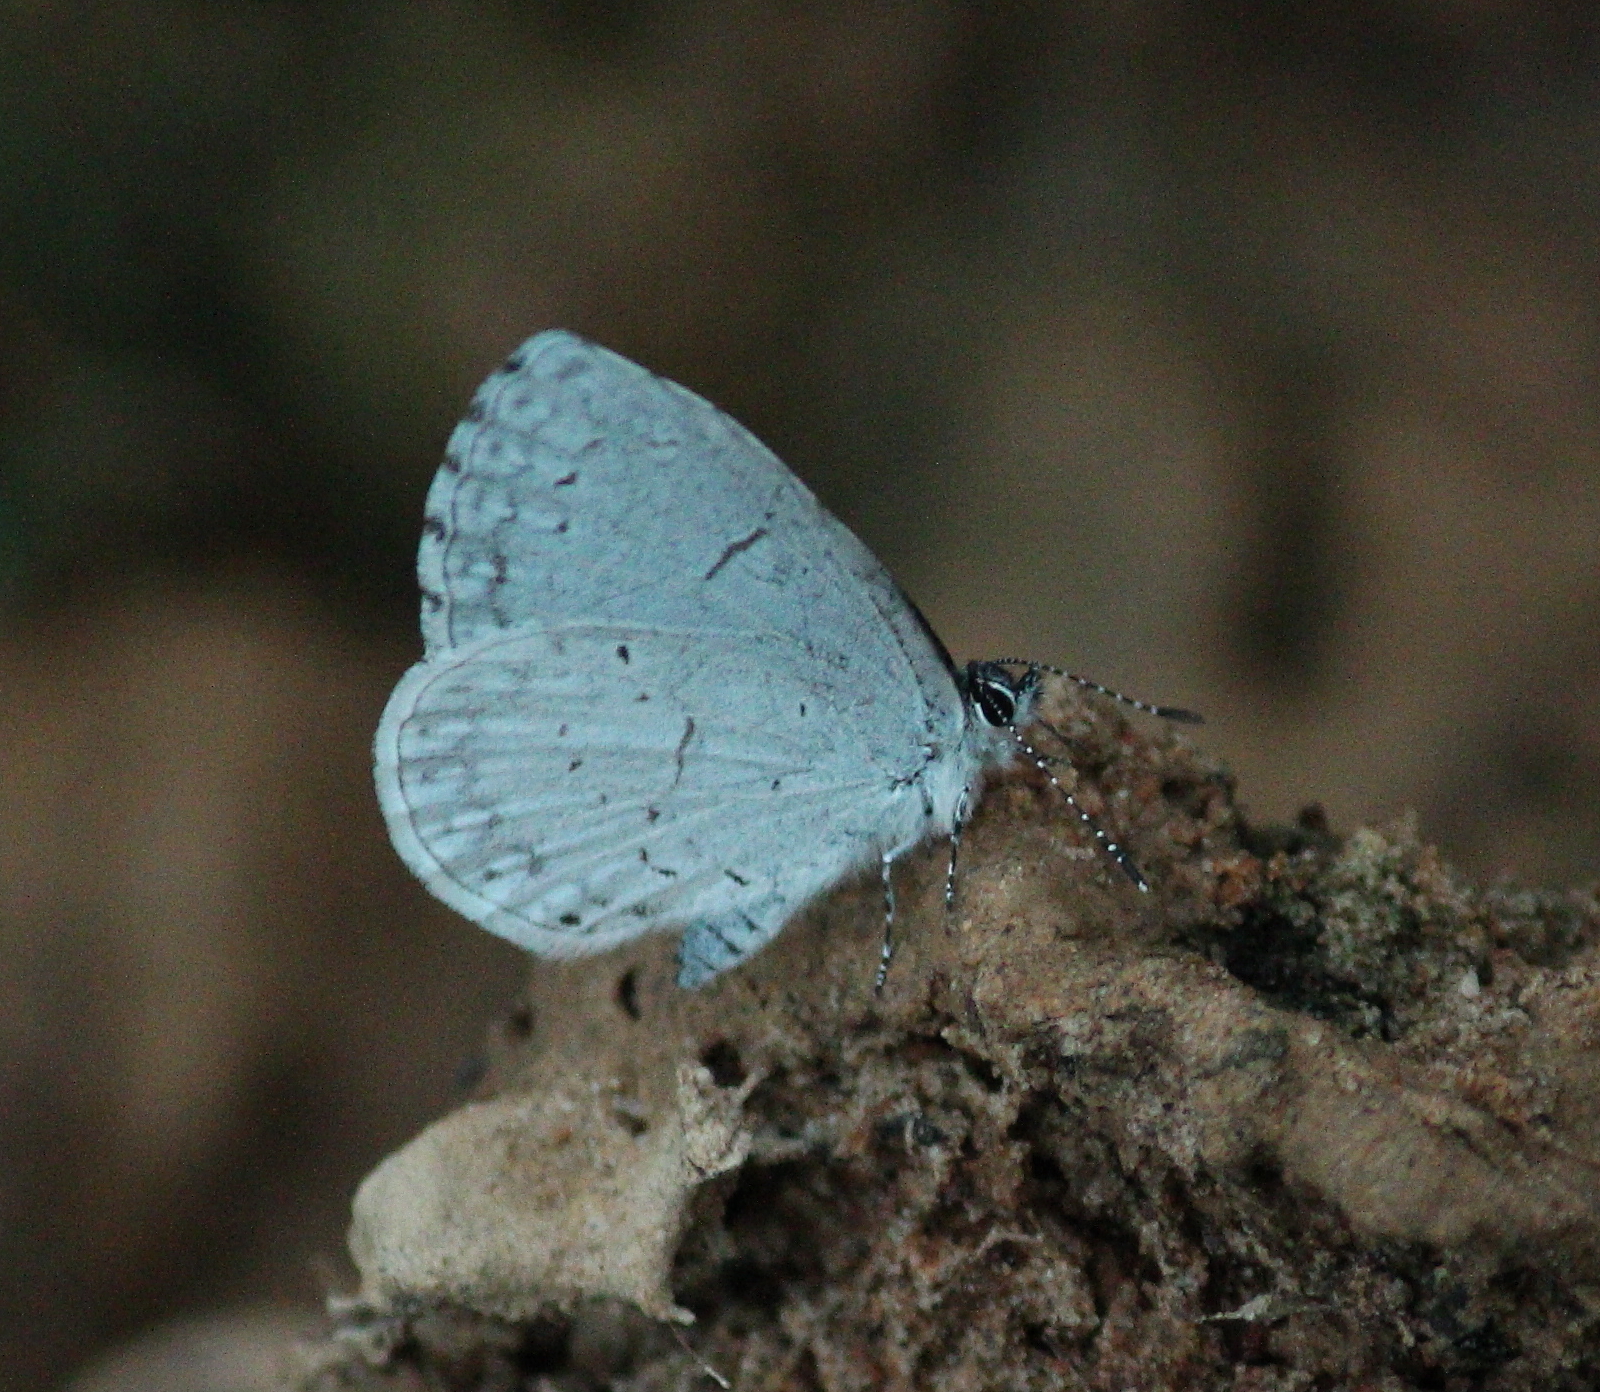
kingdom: Animalia
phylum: Arthropoda
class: Insecta
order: Lepidoptera
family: Lycaenidae
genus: Celastrina
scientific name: Celastrina ladon
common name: Spring azure
